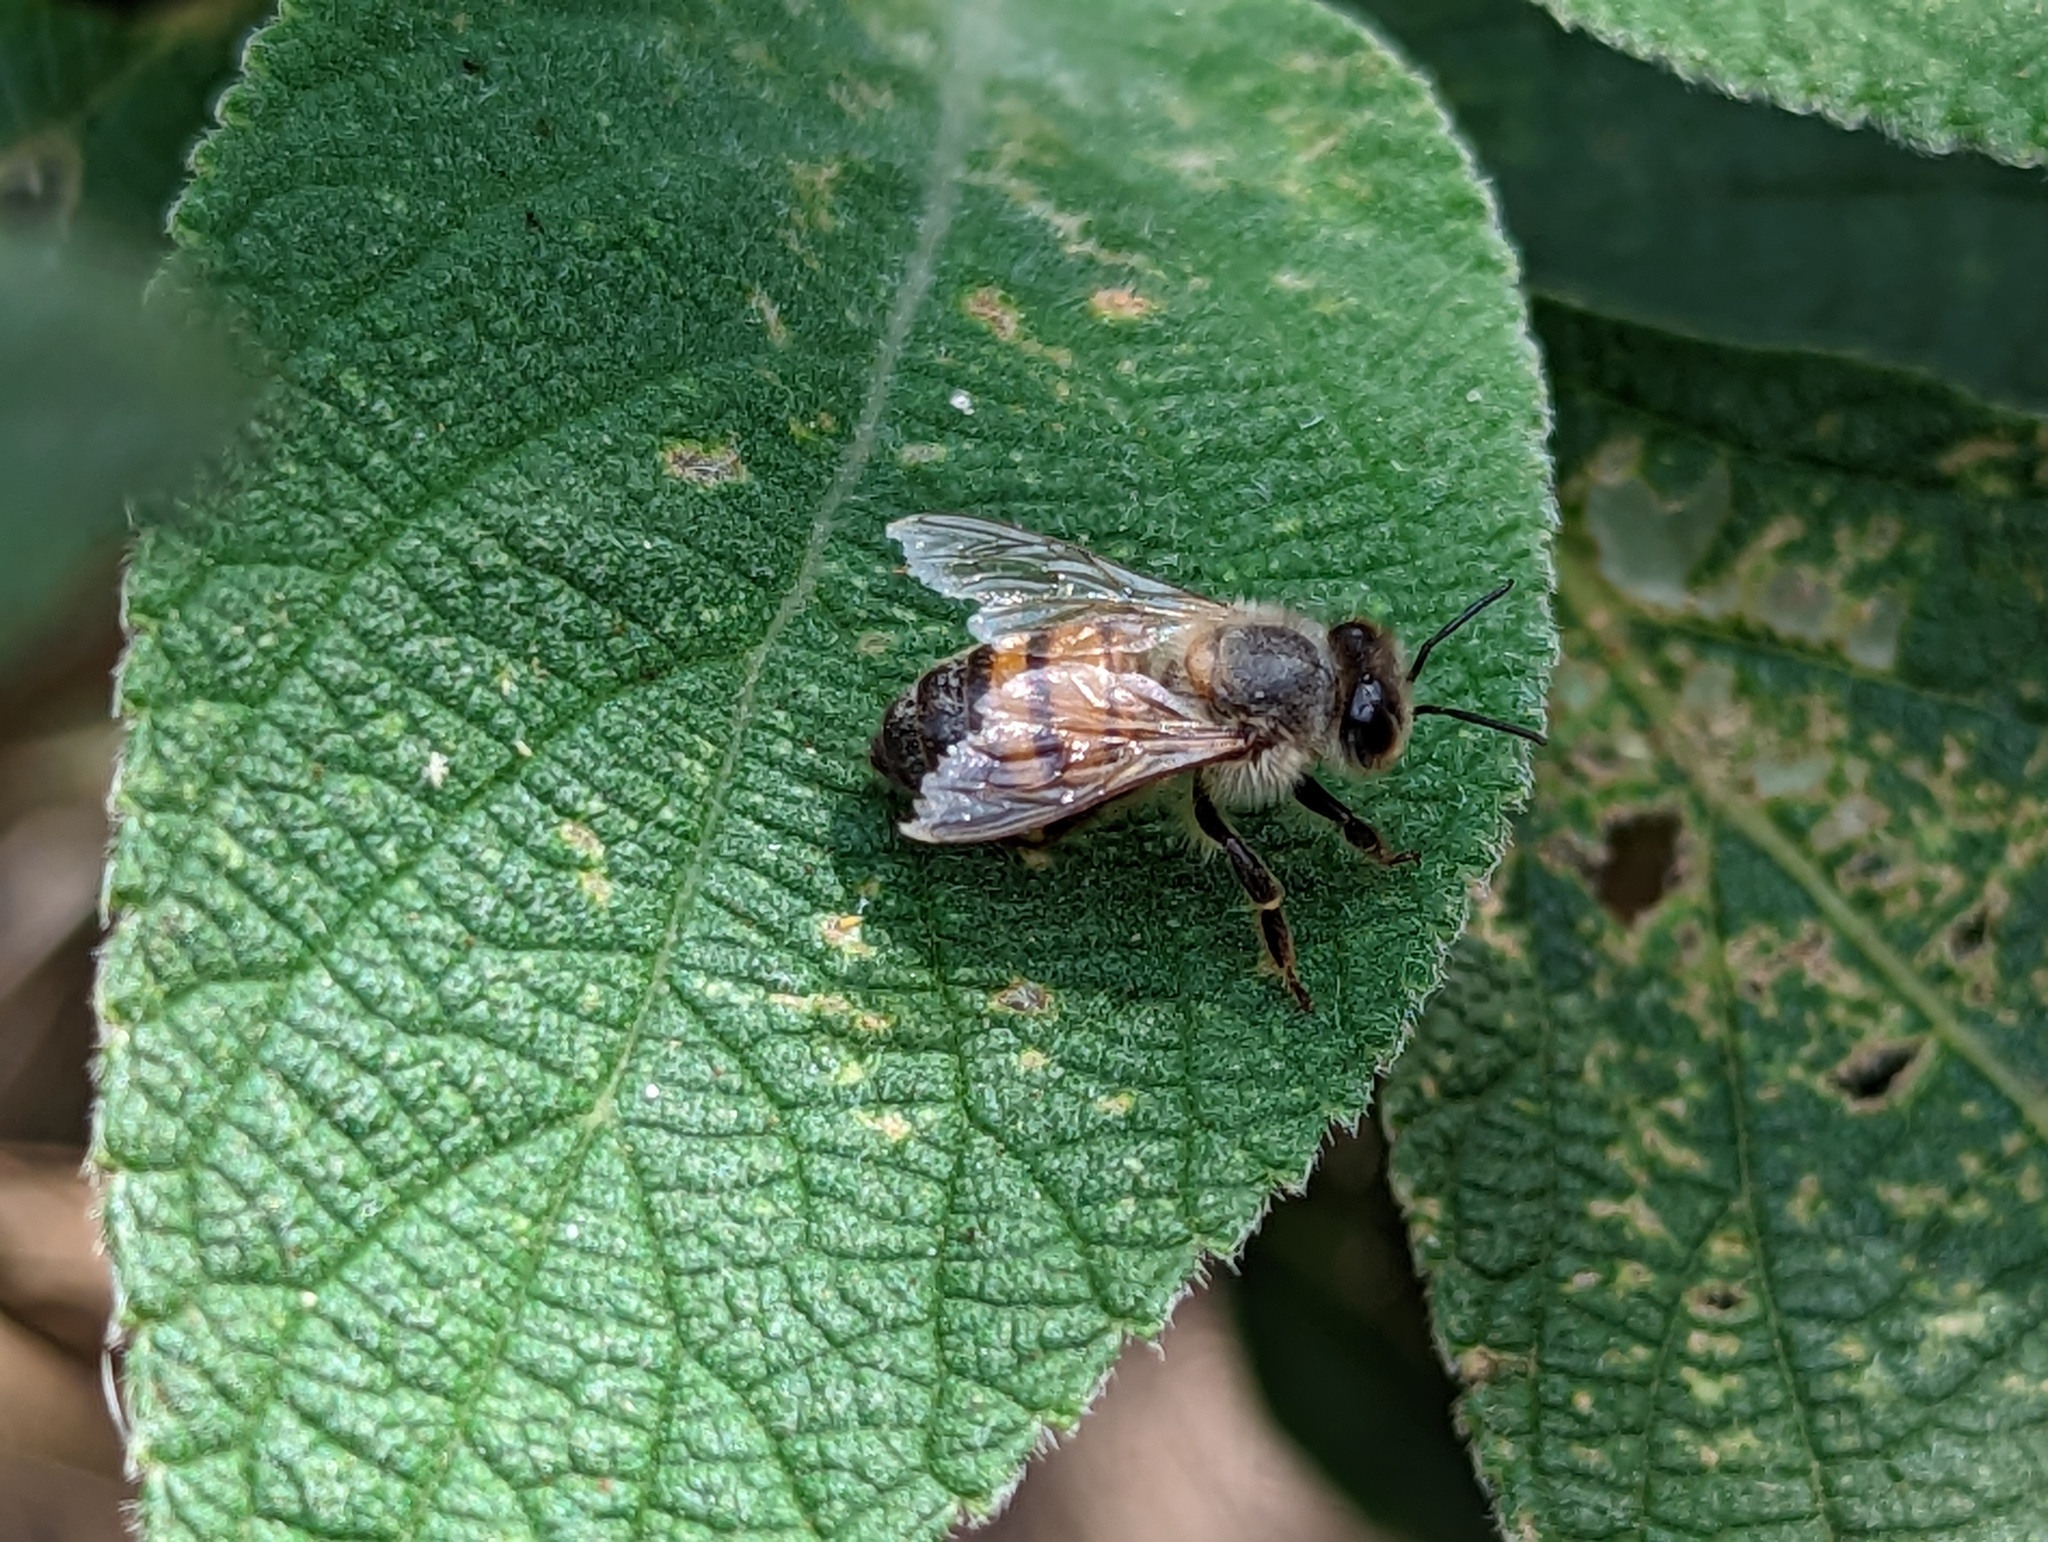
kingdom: Animalia
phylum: Arthropoda
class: Insecta
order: Hymenoptera
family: Apidae
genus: Apis
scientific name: Apis mellifera
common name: Honey bee
